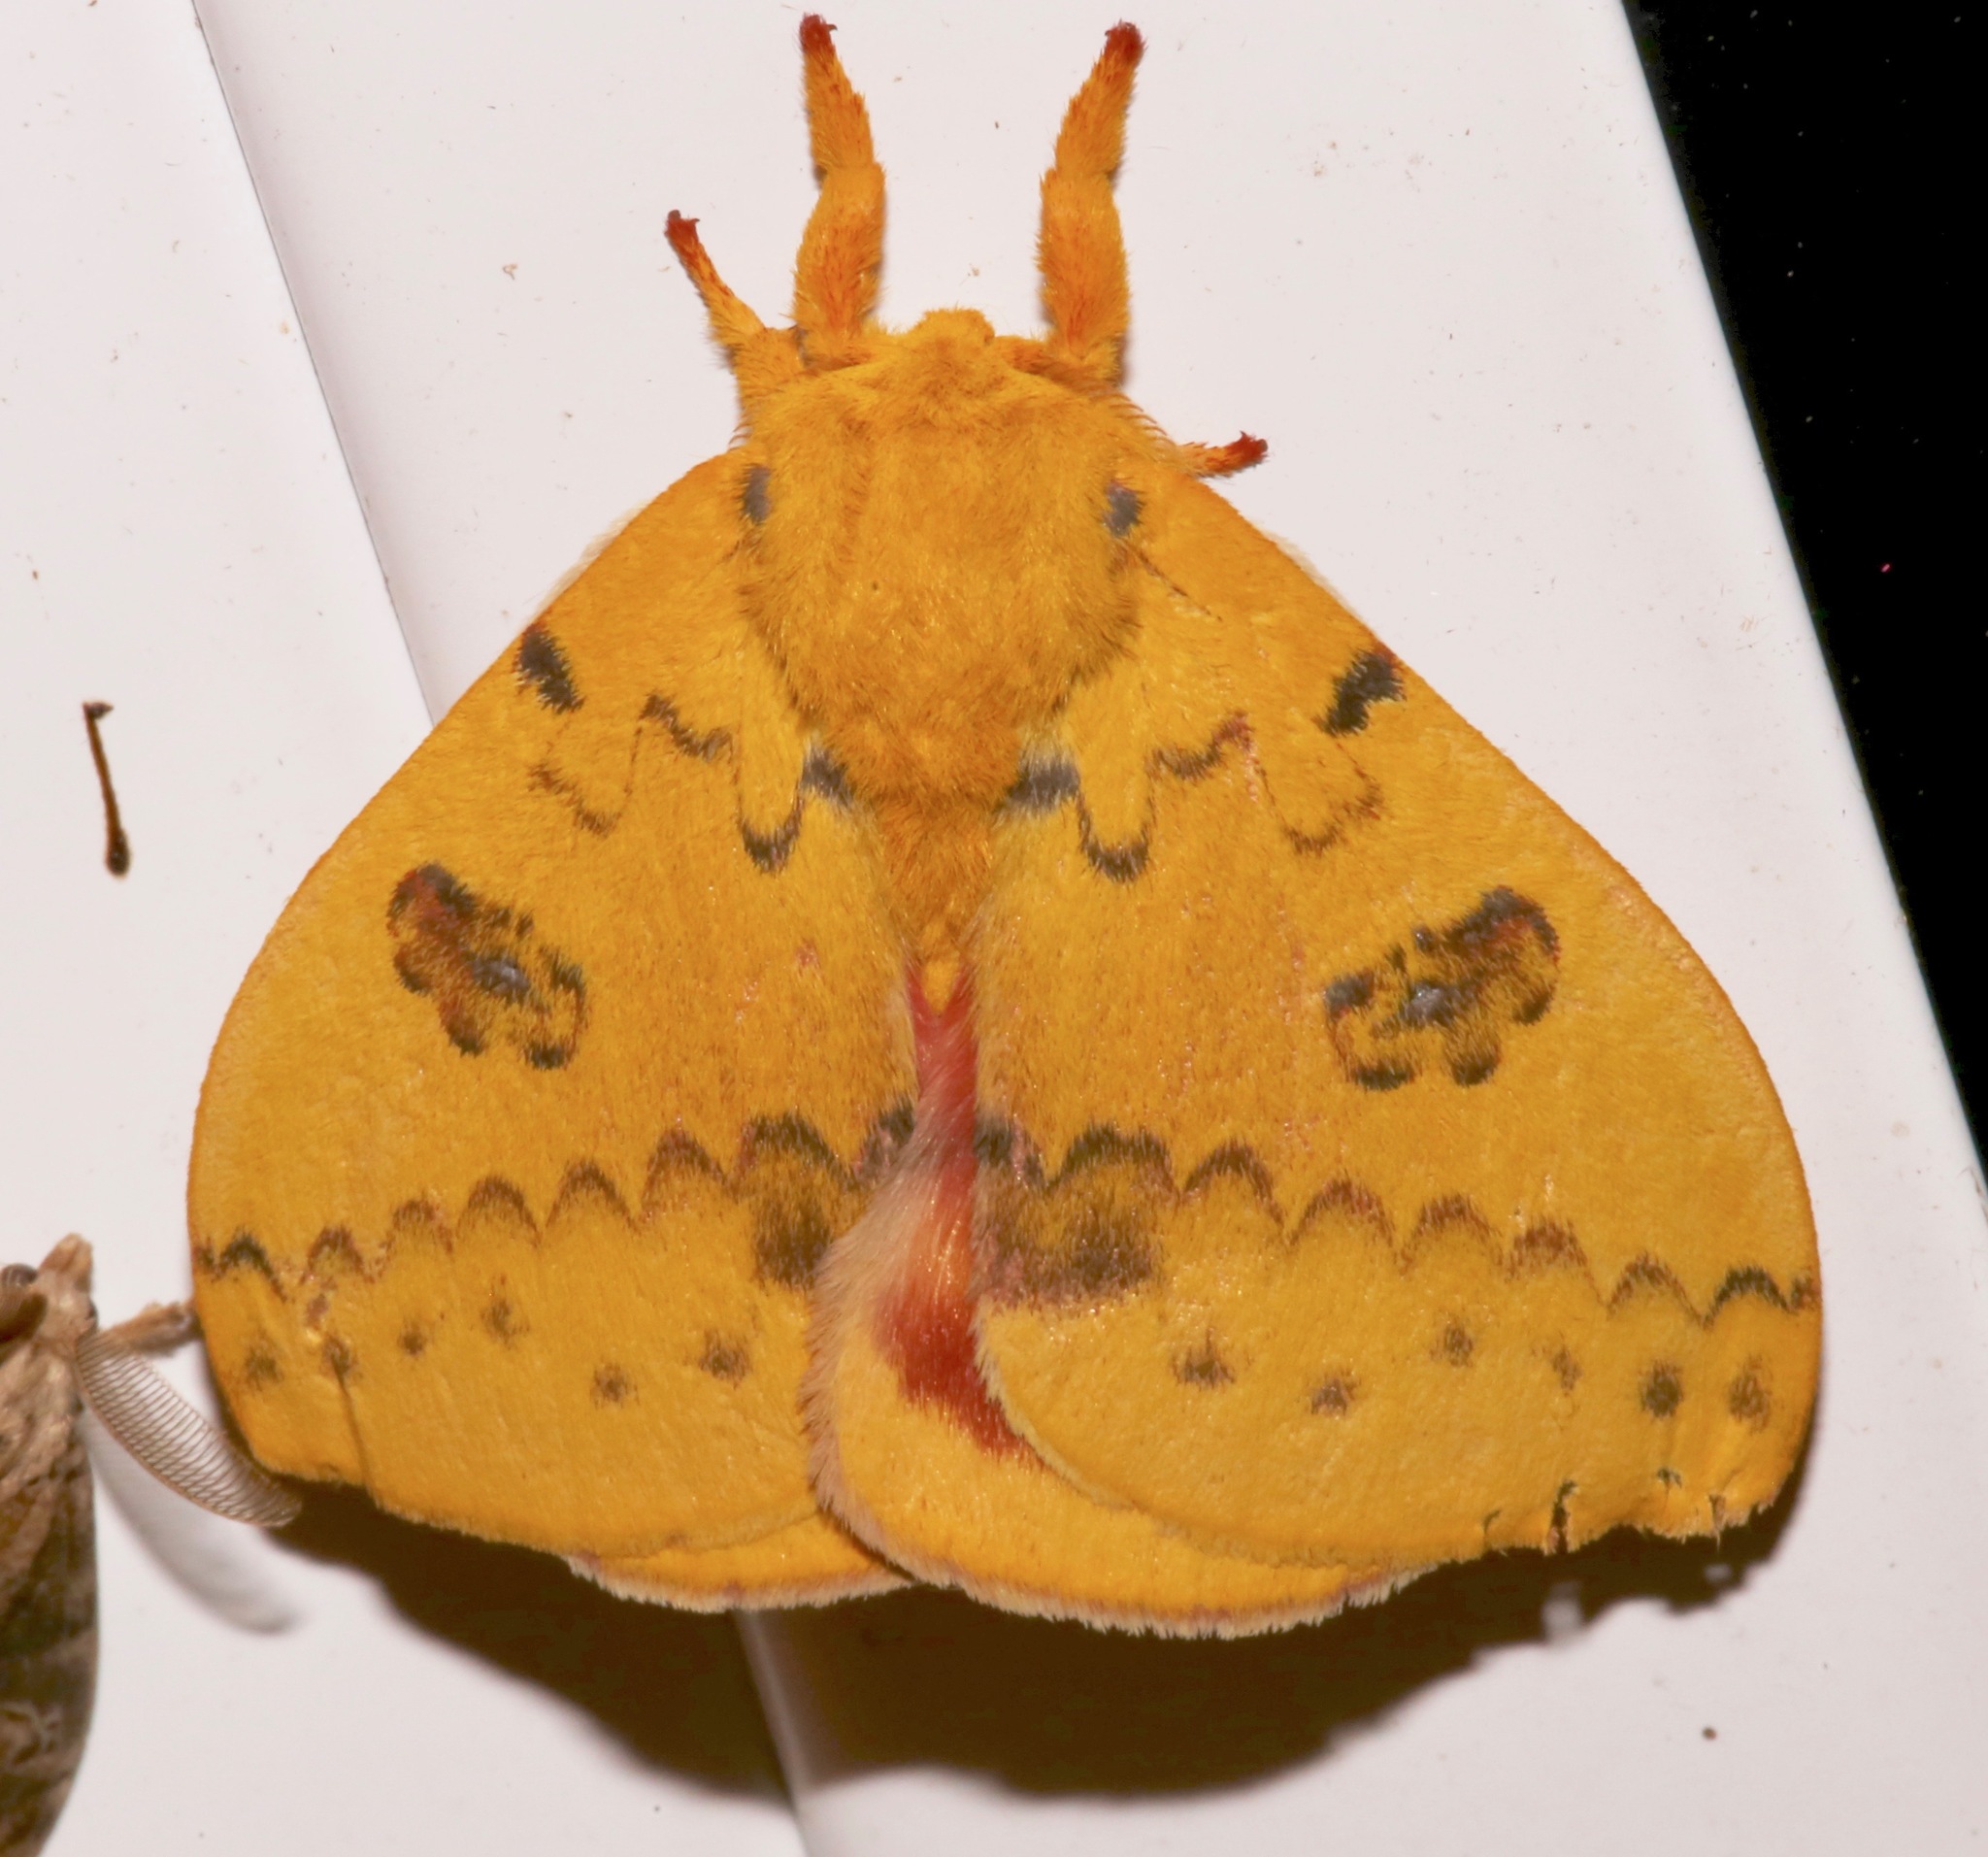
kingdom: Animalia
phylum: Arthropoda
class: Insecta
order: Lepidoptera
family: Saturniidae
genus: Automeris
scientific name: Automeris io
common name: Io moth
